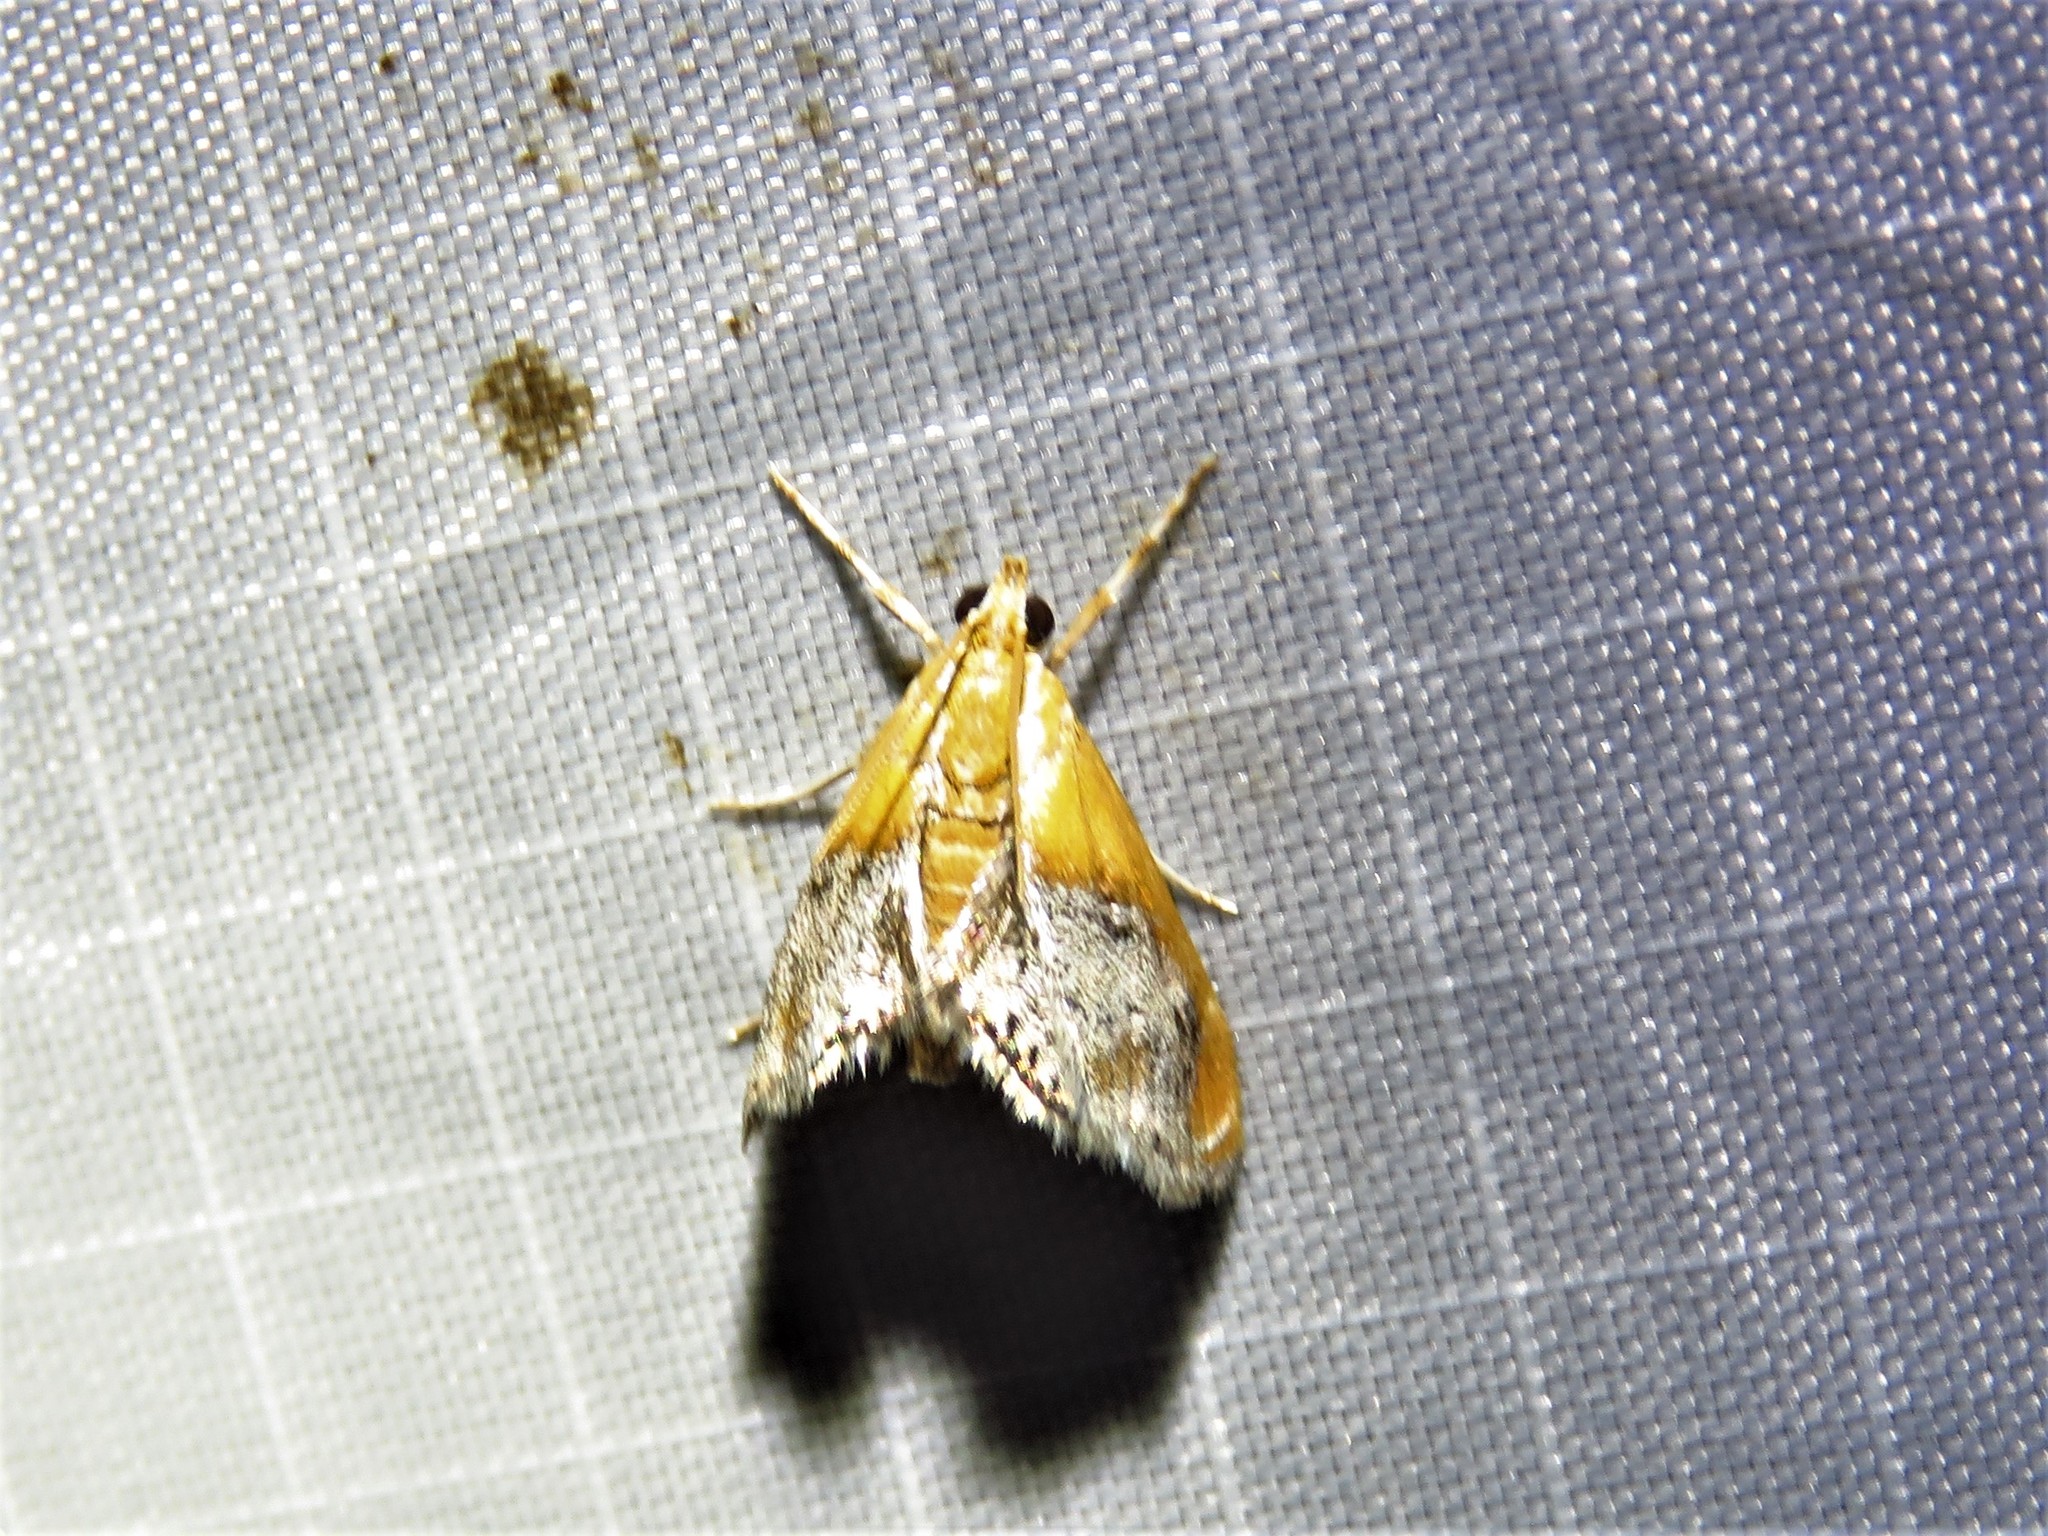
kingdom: Animalia
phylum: Arthropoda
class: Insecta
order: Lepidoptera
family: Crambidae
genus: Chalcoela
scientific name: Chalcoela iphitalis
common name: Sooty-winged chalcoela moth
